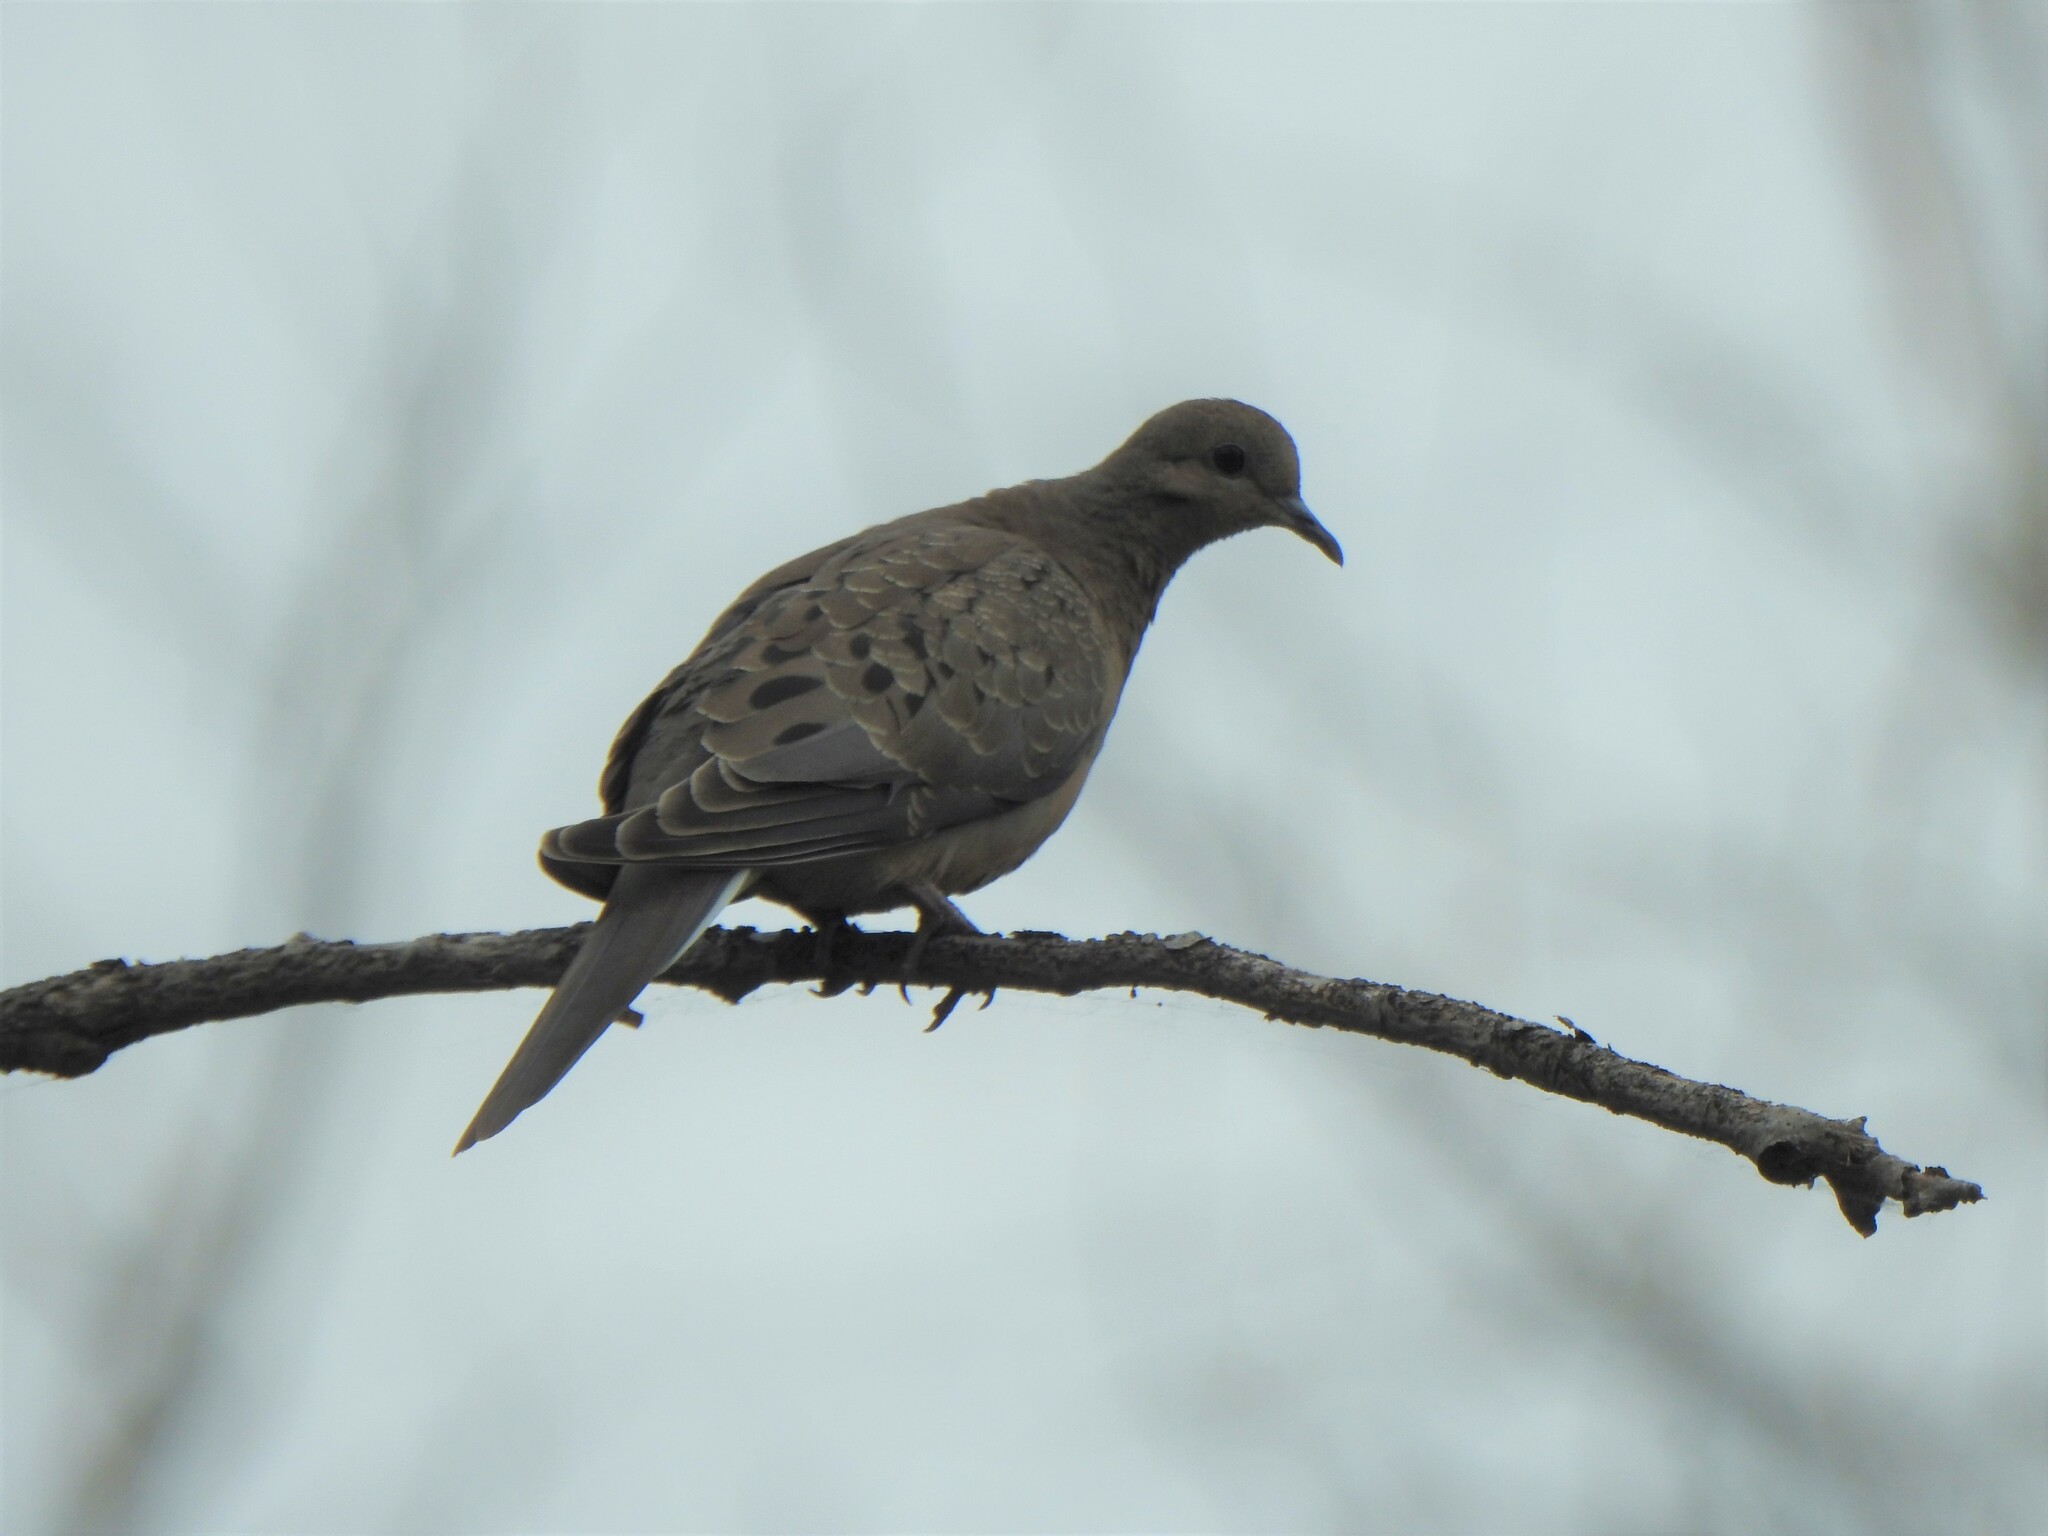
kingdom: Animalia
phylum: Chordata
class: Aves
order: Columbiformes
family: Columbidae
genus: Zenaida
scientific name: Zenaida macroura
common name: Mourning dove
